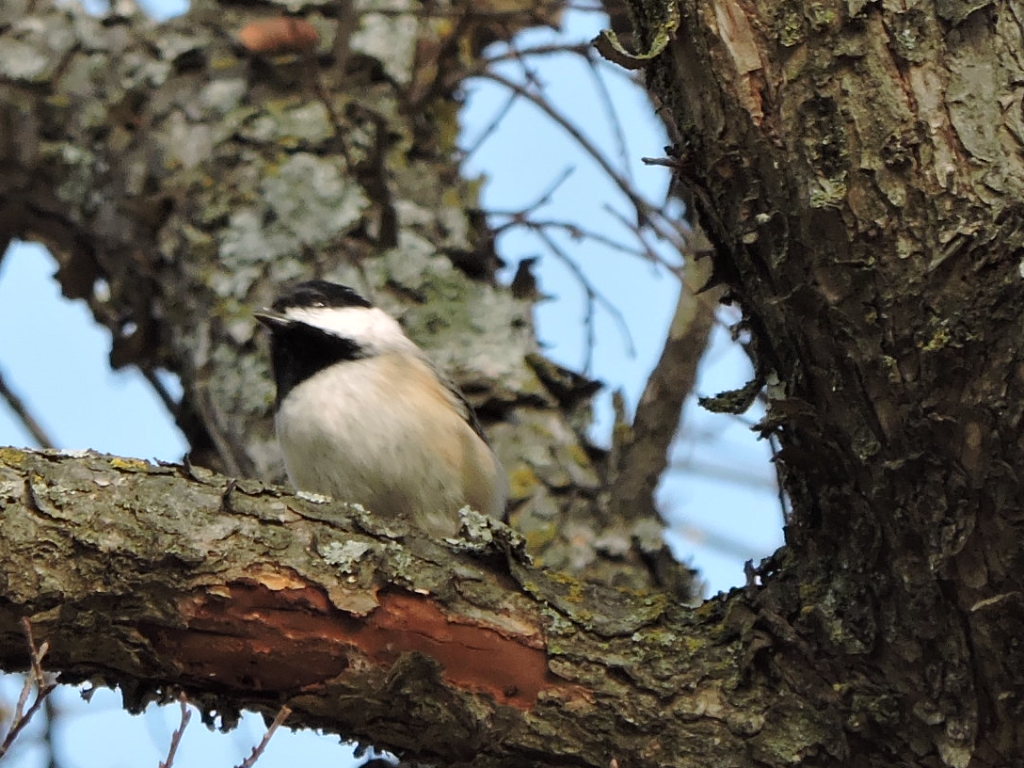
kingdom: Animalia
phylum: Chordata
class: Aves
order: Passeriformes
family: Paridae
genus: Poecile
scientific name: Poecile carolinensis
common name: Carolina chickadee
